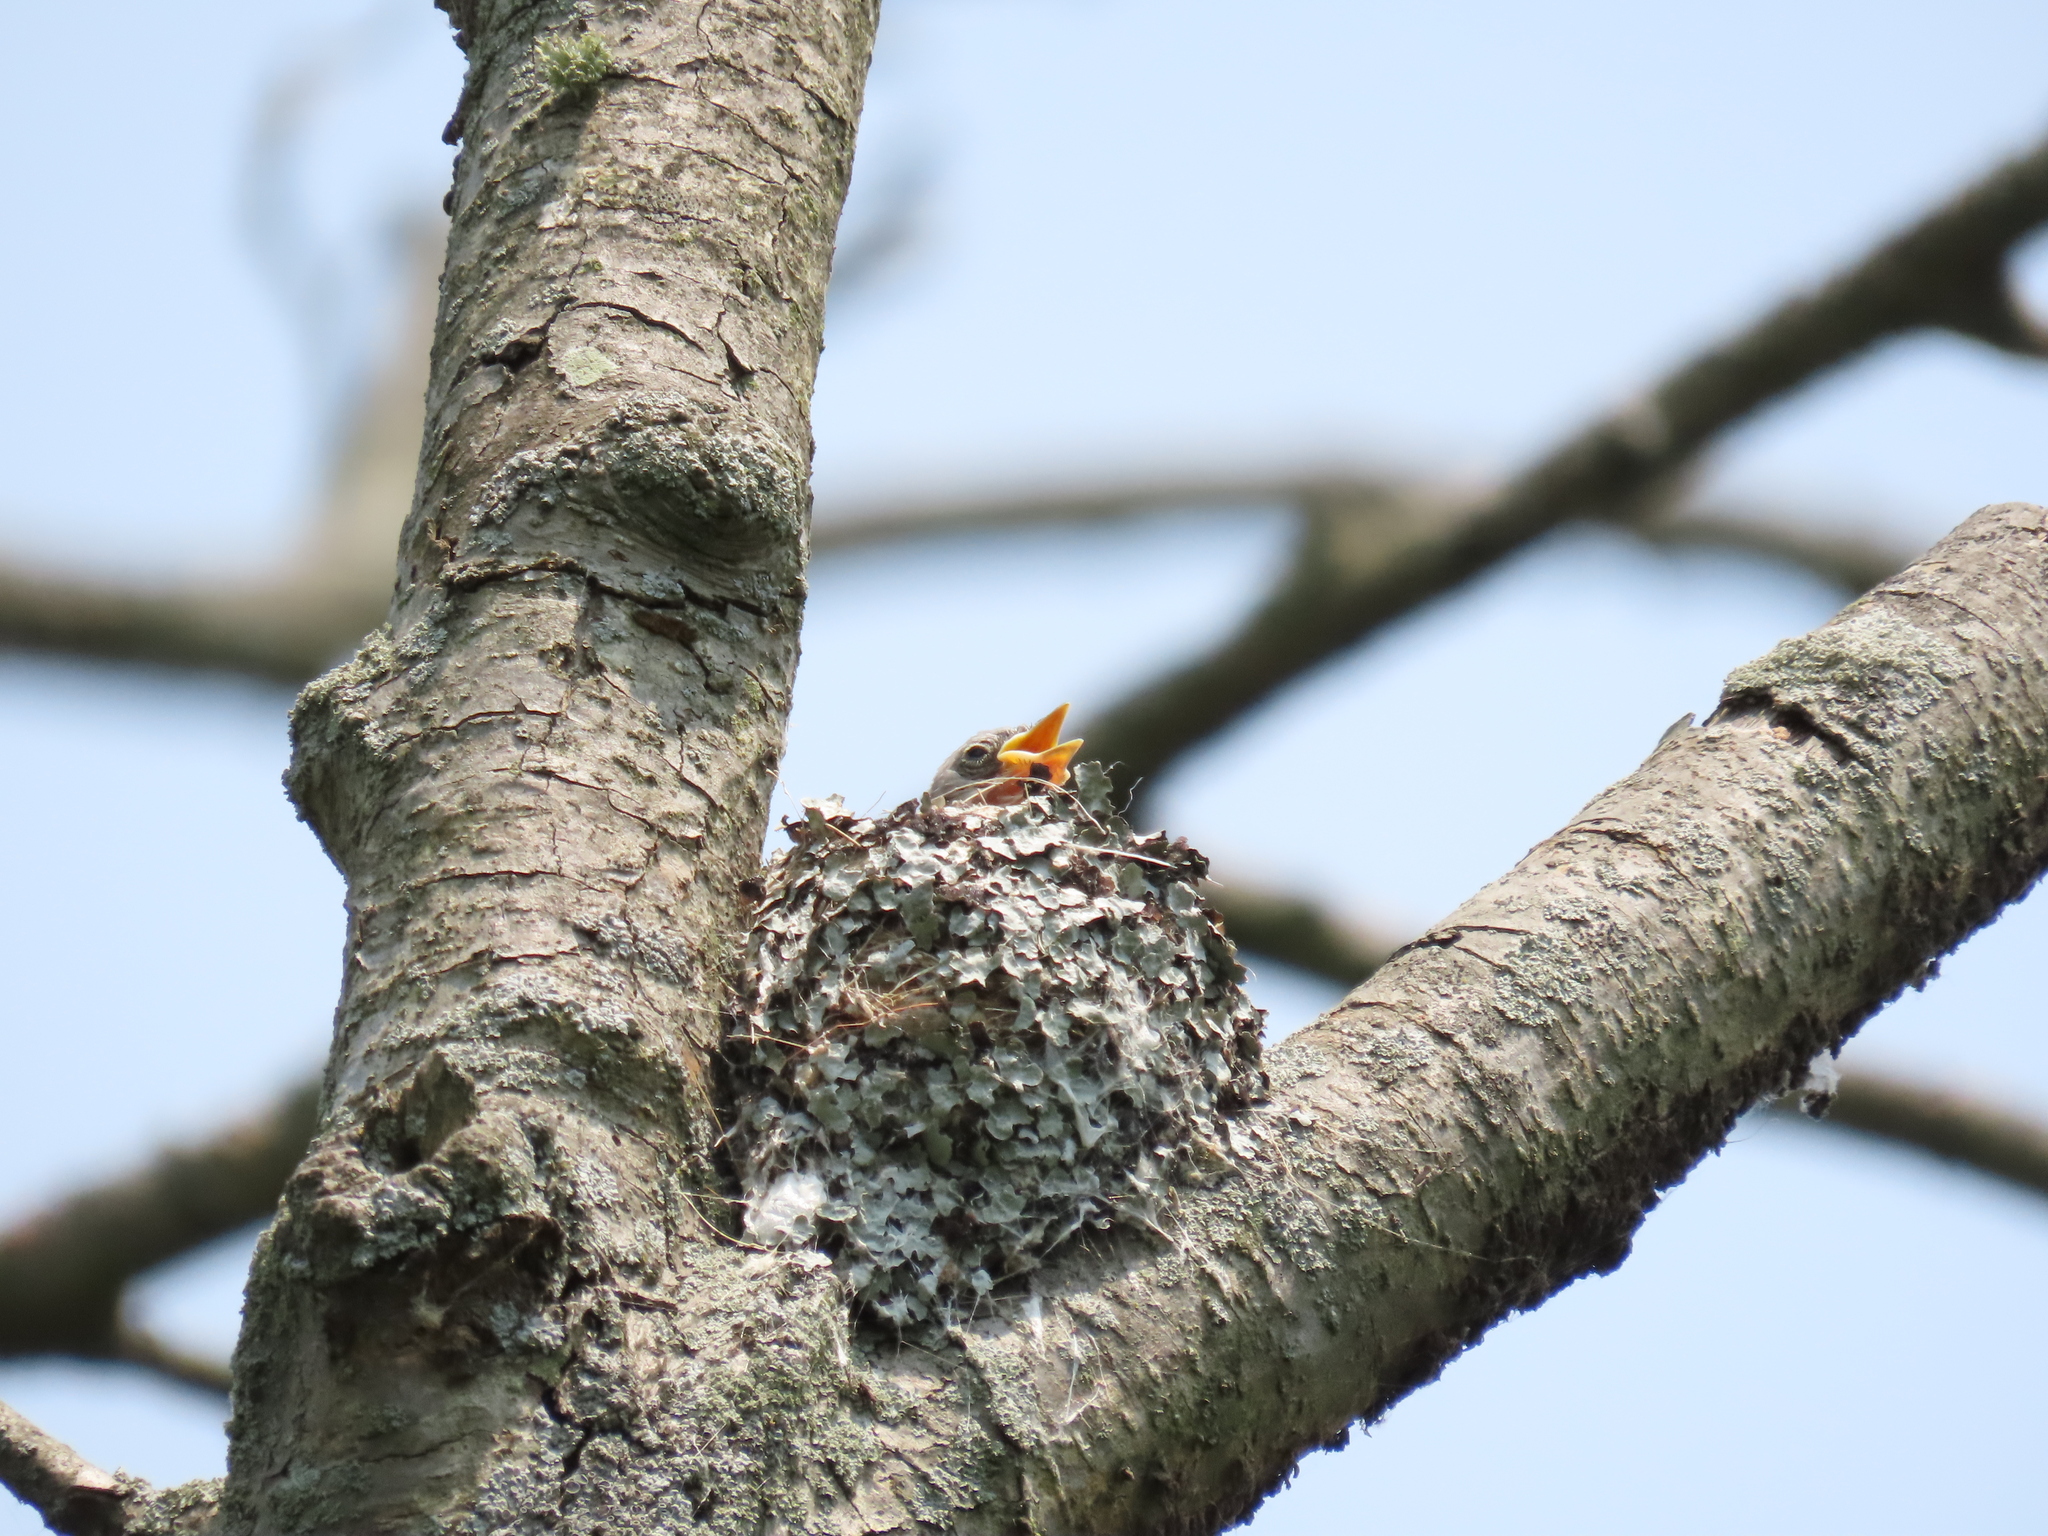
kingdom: Animalia
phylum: Chordata
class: Aves
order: Passeriformes
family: Polioptilidae
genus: Polioptila
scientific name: Polioptila caerulea
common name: Blue-gray gnatcatcher
